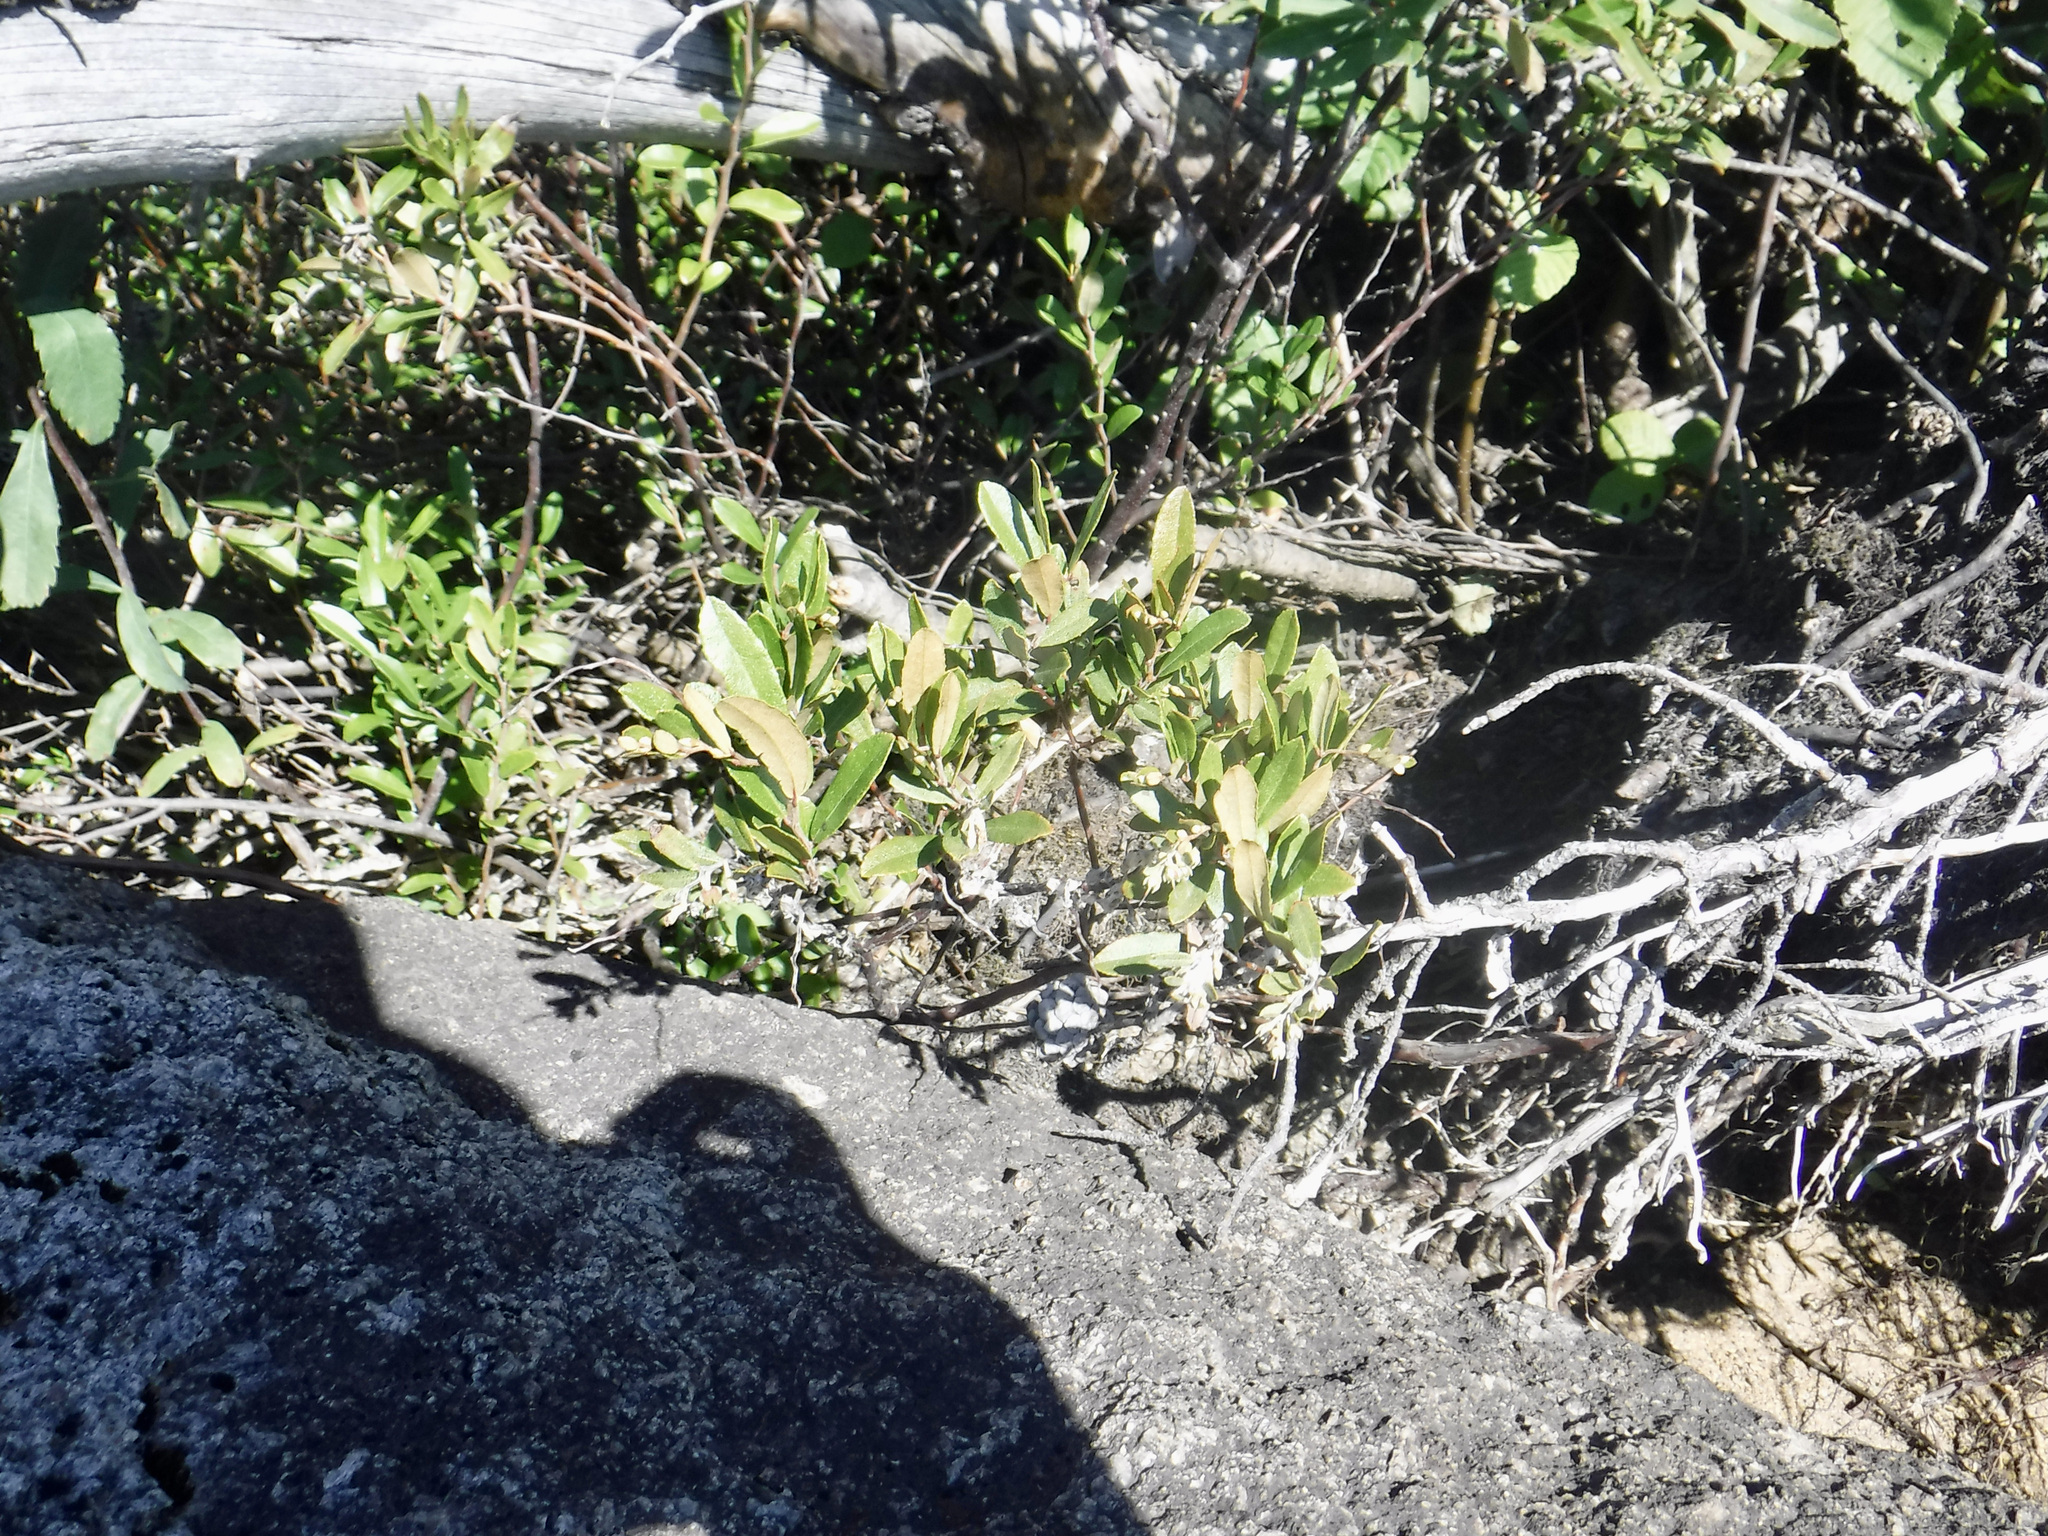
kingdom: Plantae
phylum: Tracheophyta
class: Magnoliopsida
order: Ericales
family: Ericaceae
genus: Chamaedaphne
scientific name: Chamaedaphne calyculata
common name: Leatherleaf
